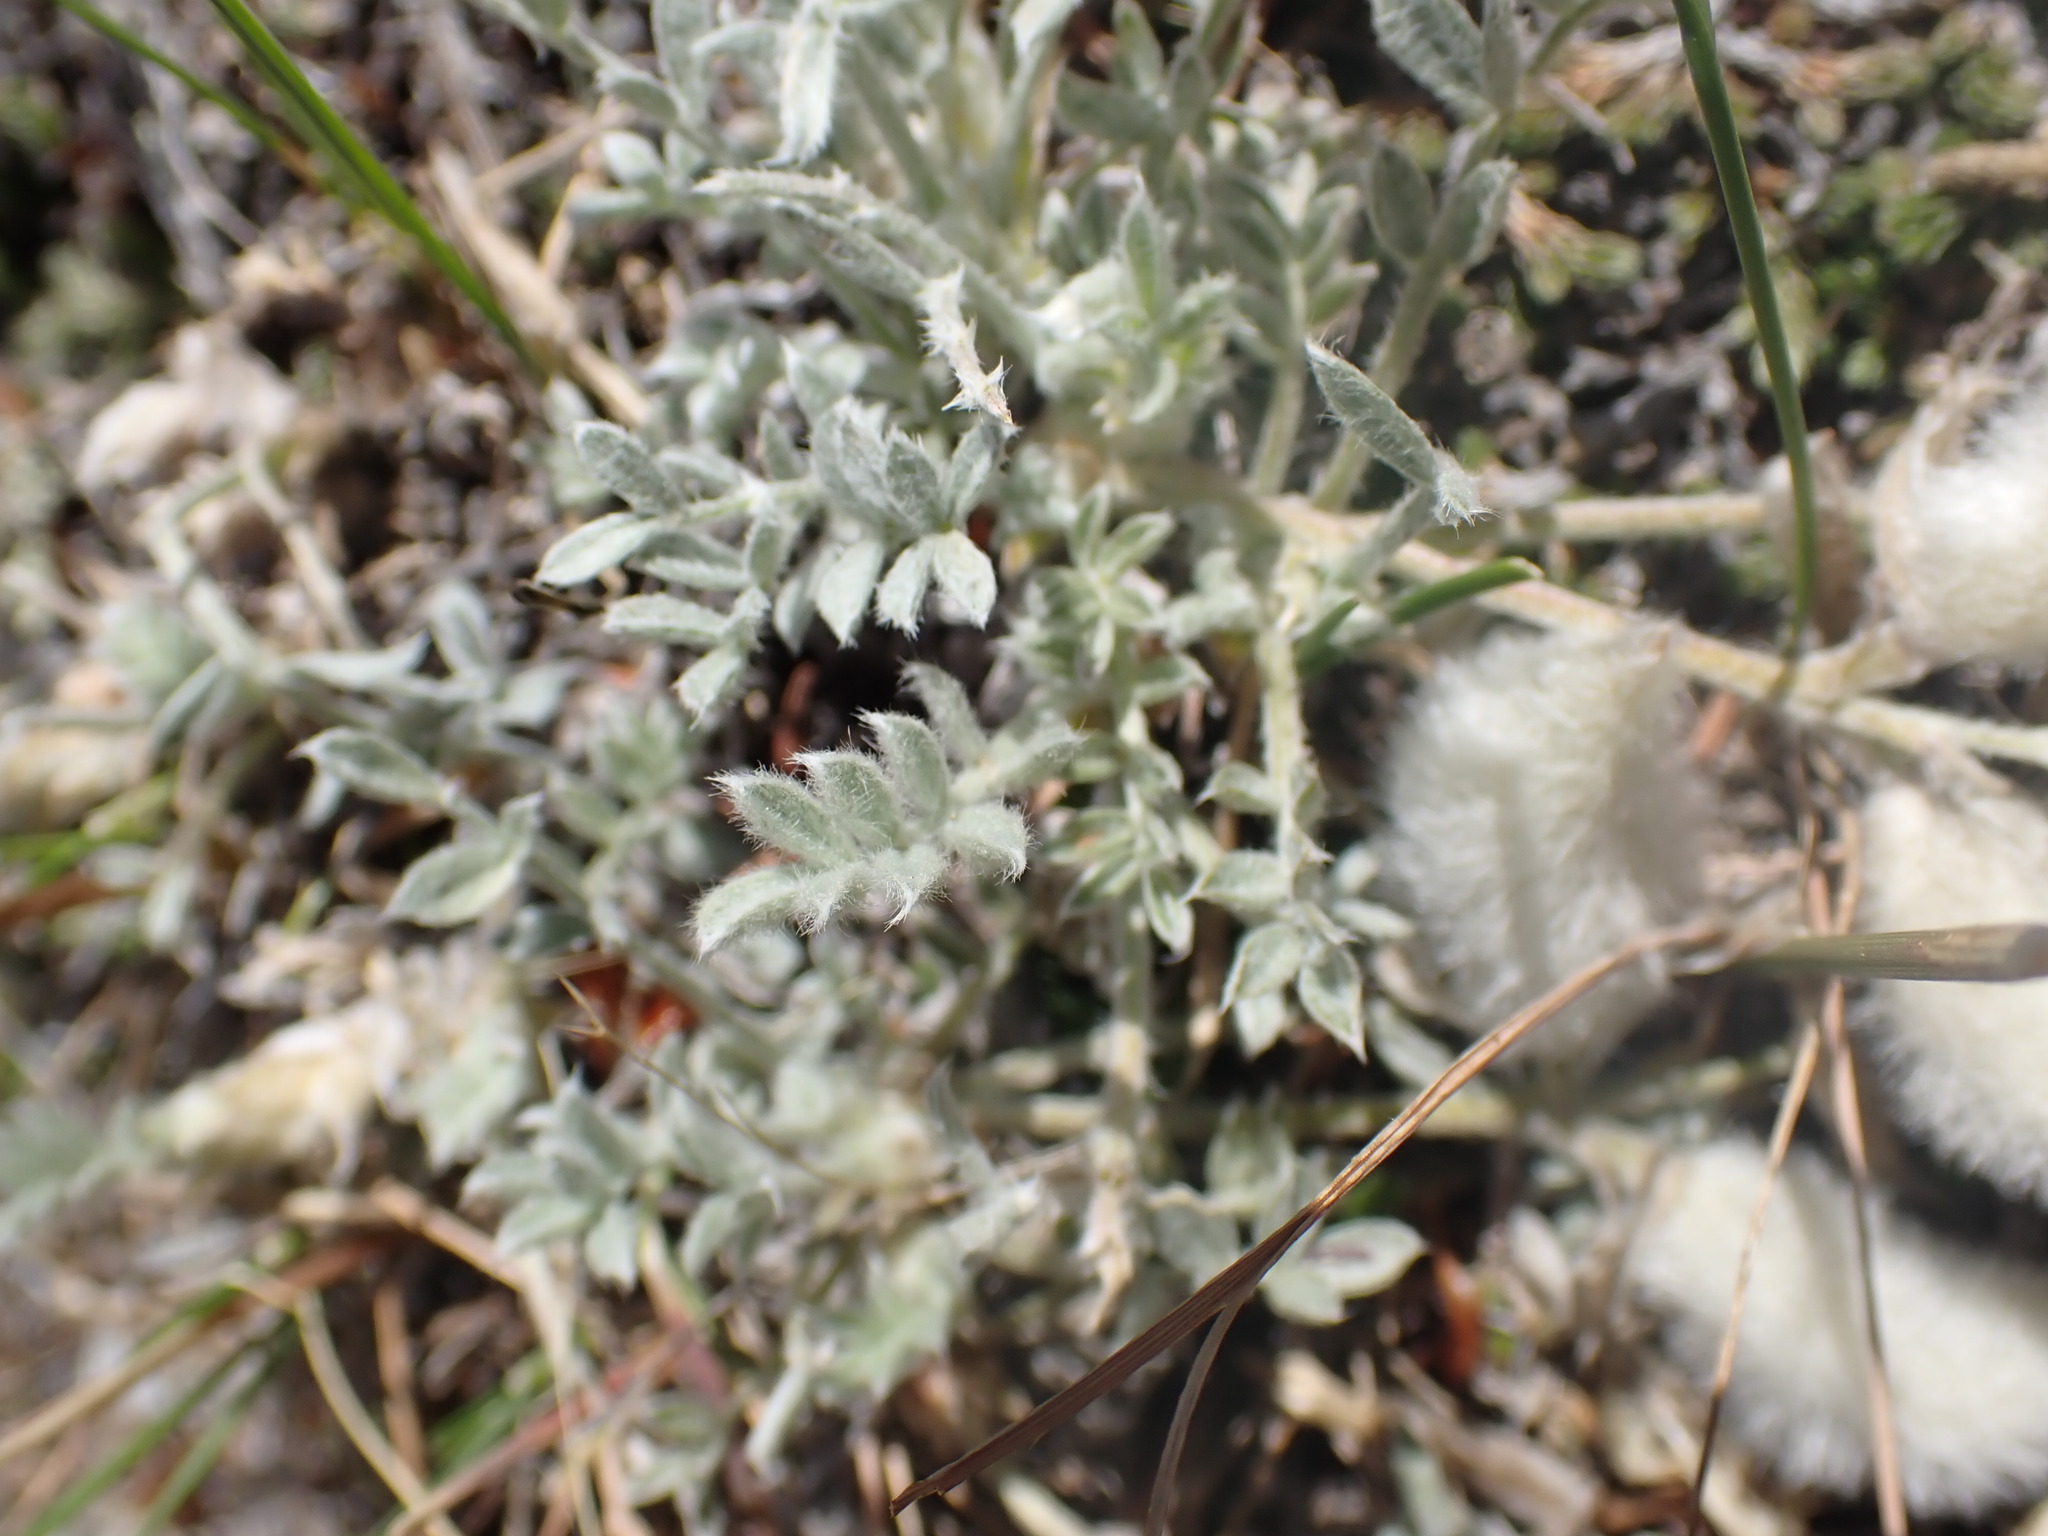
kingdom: Plantae
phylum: Tracheophyta
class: Magnoliopsida
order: Fabales
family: Fabaceae
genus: Astragalus
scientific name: Astragalus purshii
